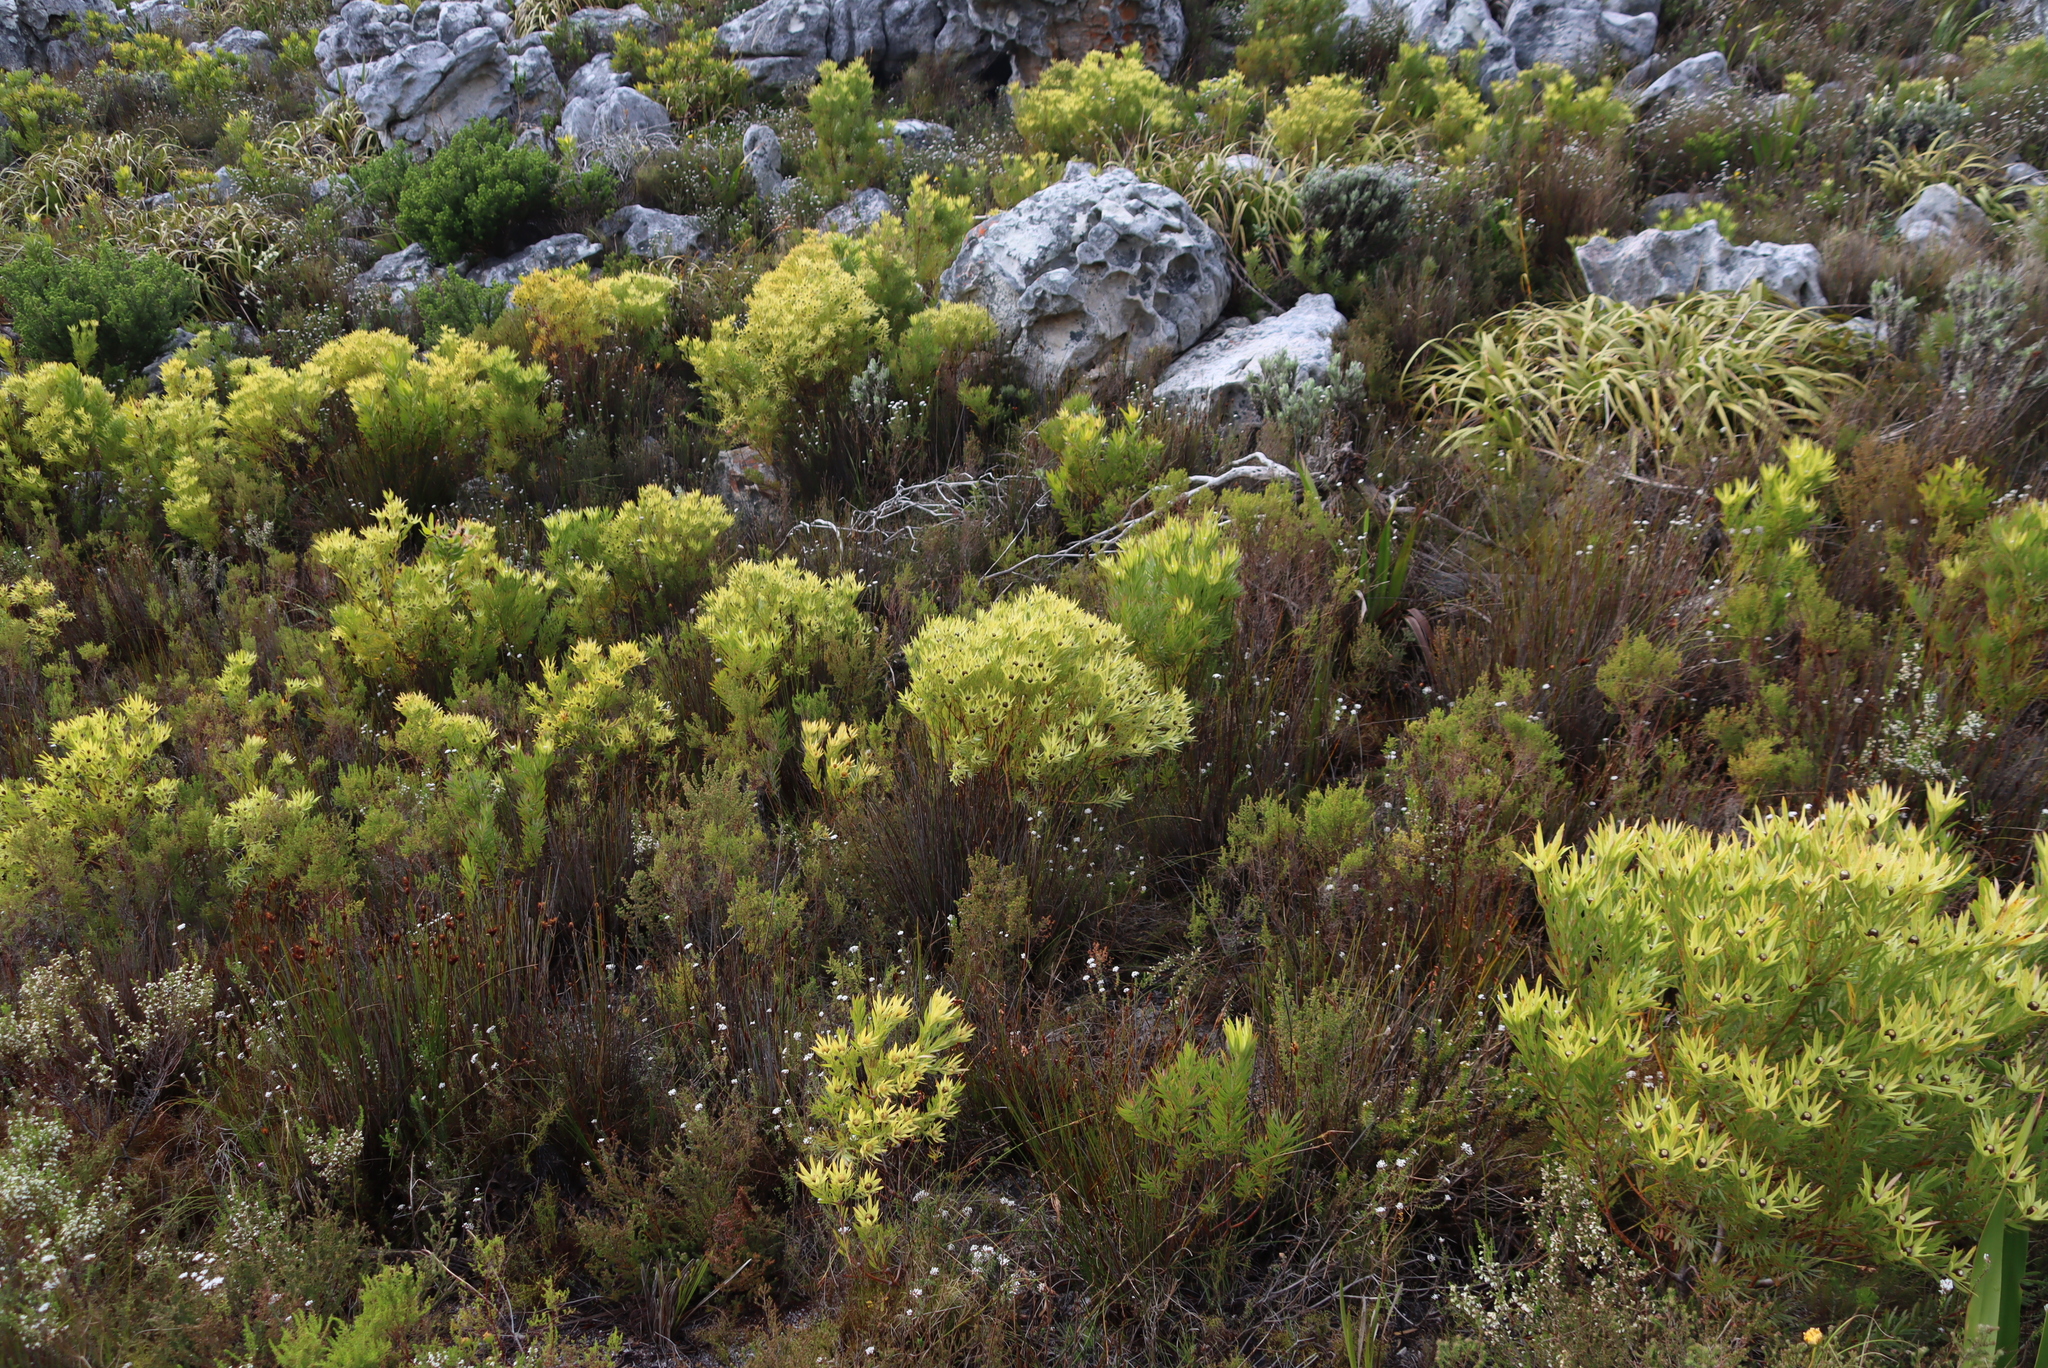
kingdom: Plantae
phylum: Tracheophyta
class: Magnoliopsida
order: Proteales
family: Proteaceae
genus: Leucadendron
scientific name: Leucadendron xanthoconus
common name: Sickle-leaf conebush
